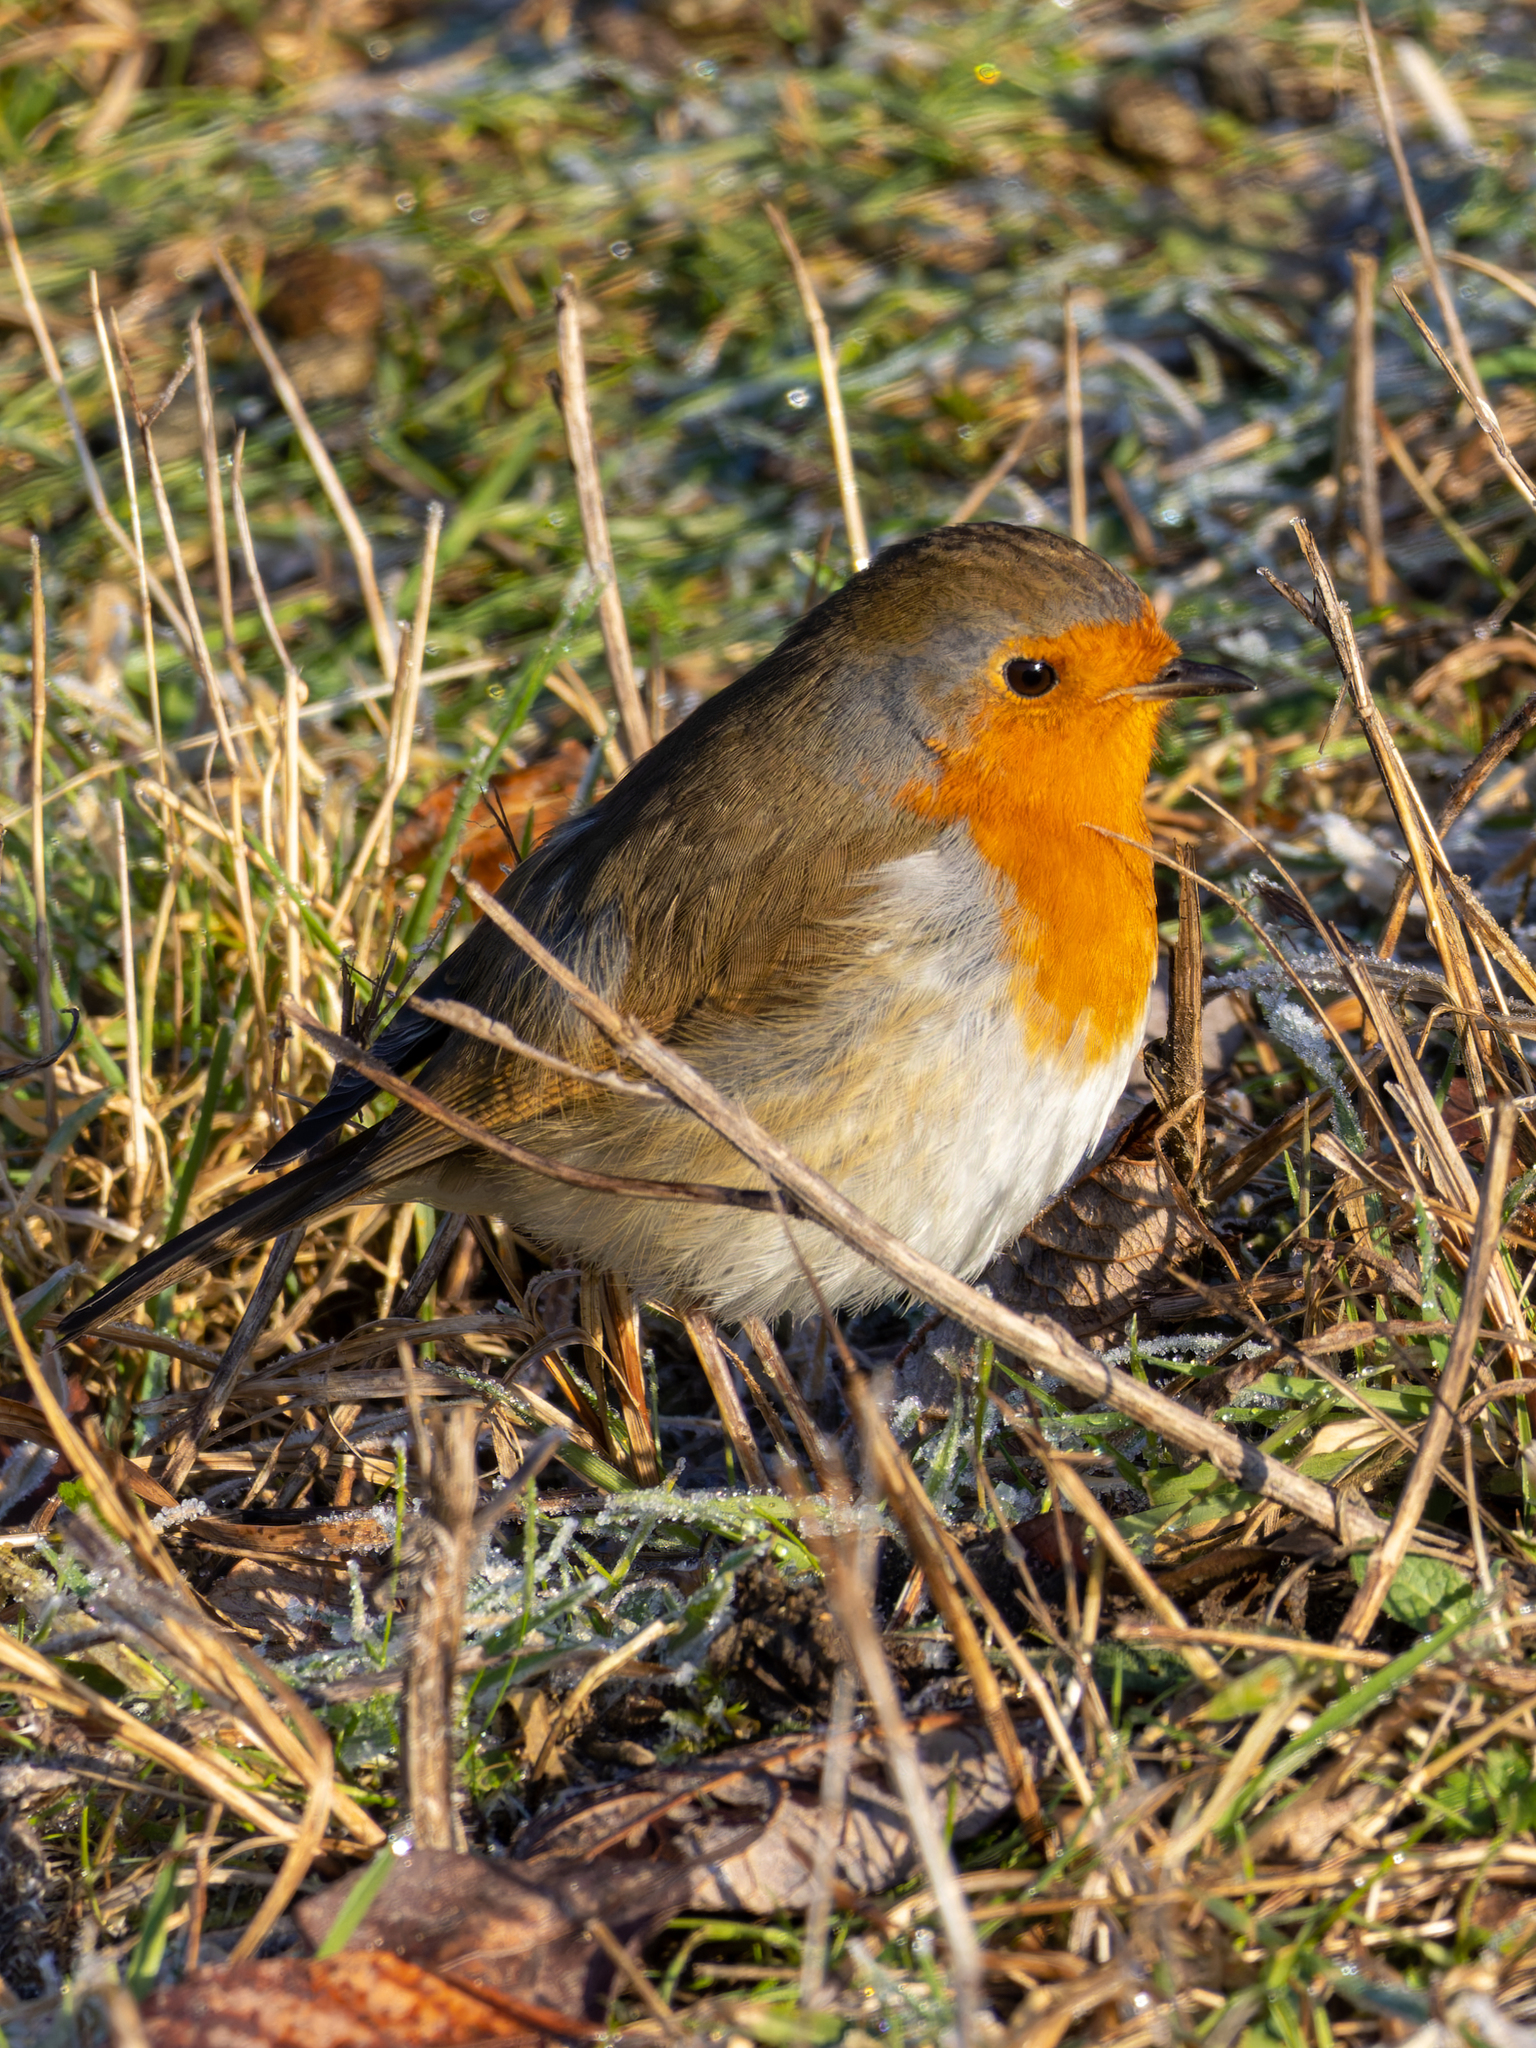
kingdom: Animalia
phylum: Chordata
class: Aves
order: Passeriformes
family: Muscicapidae
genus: Erithacus
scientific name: Erithacus rubecula
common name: European robin
